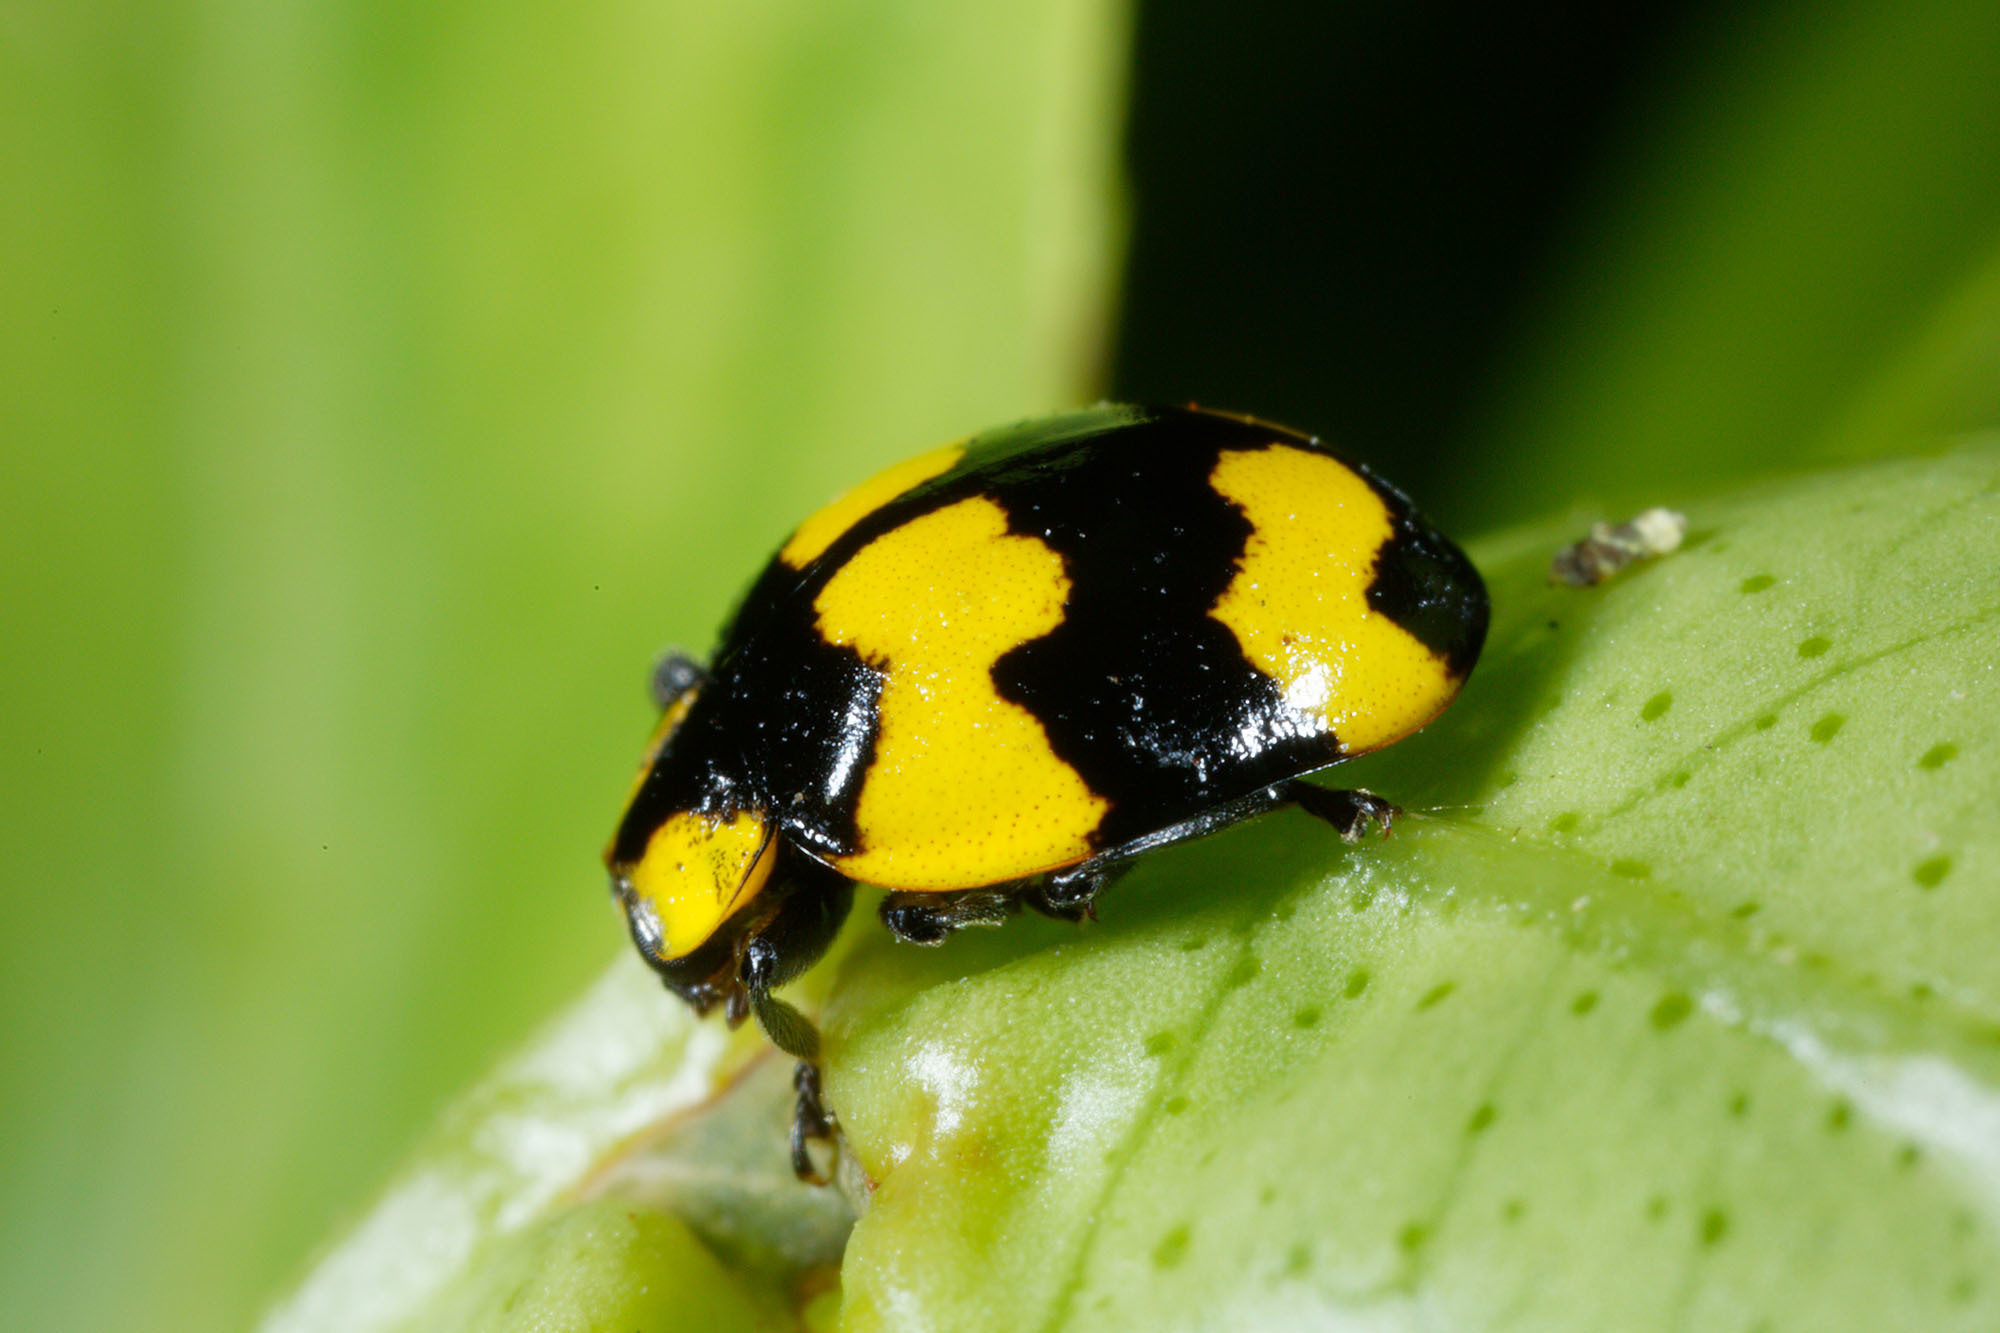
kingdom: Animalia
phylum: Arthropoda
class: Insecta
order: Coleoptera
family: Coccinellidae
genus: Illeis
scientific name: Illeis galbula
